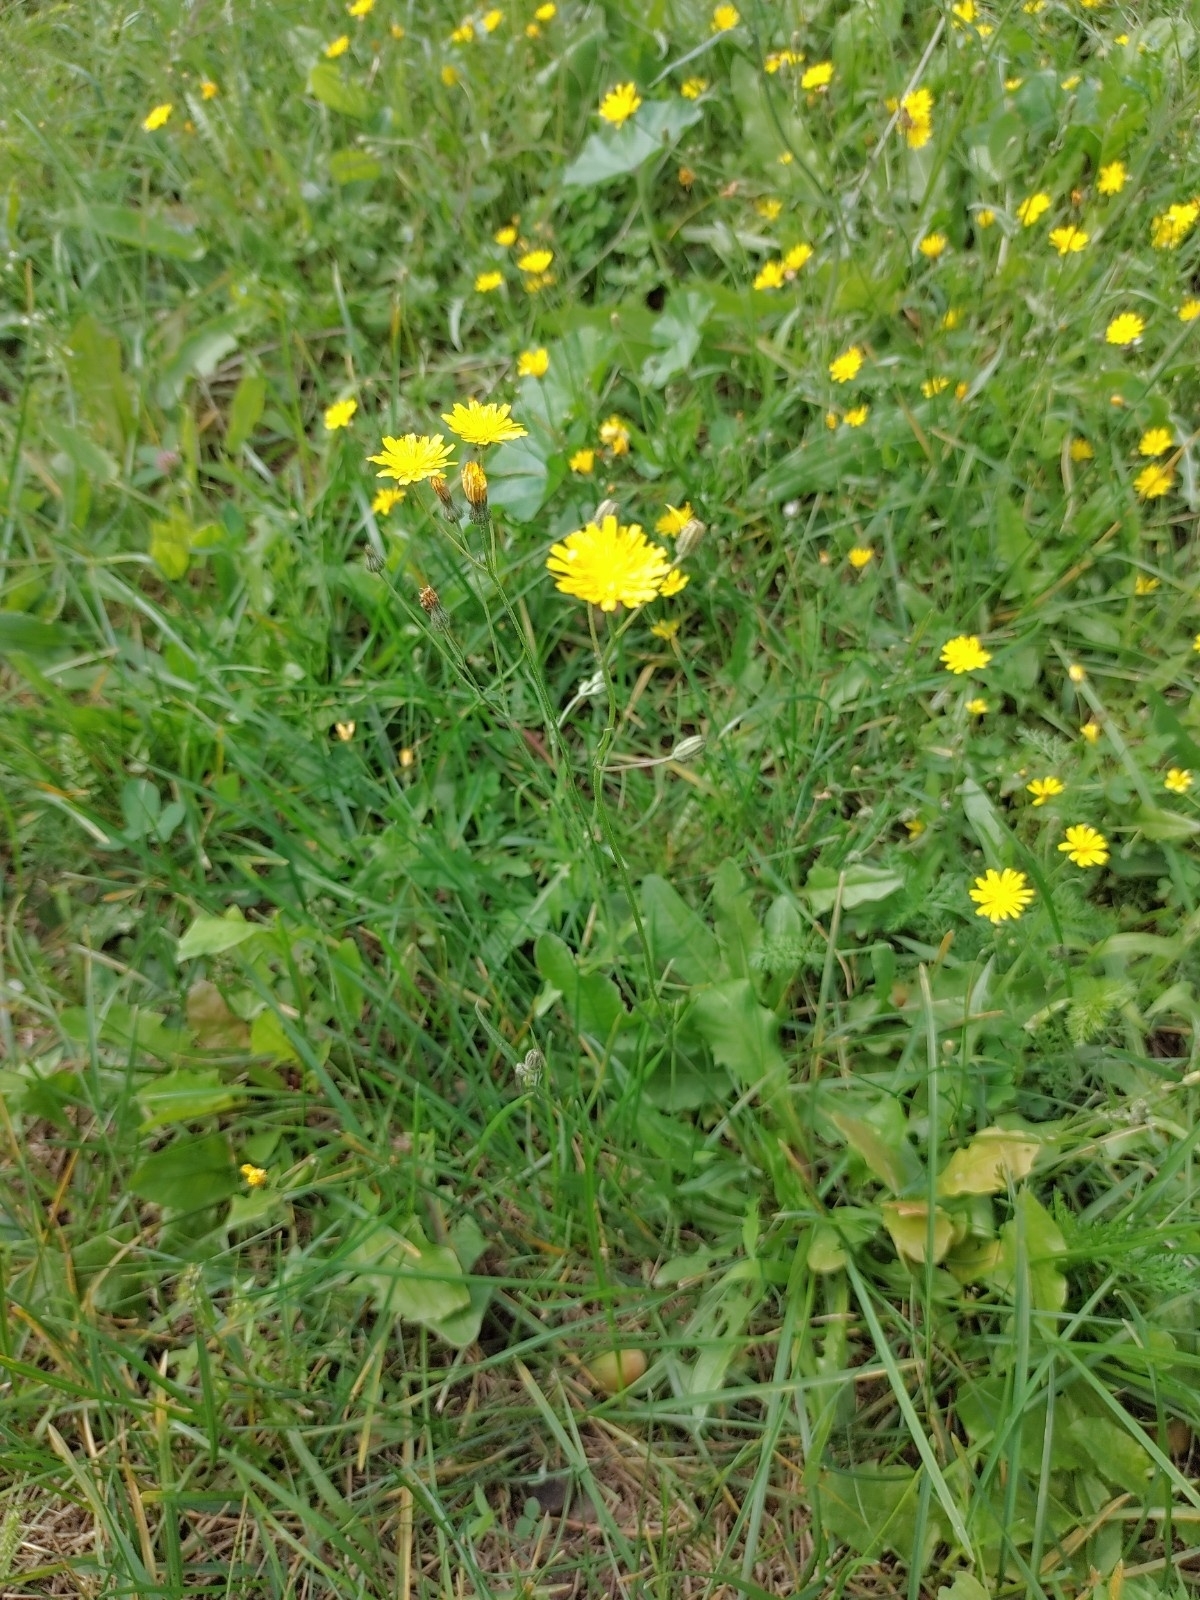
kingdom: Plantae
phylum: Tracheophyta
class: Magnoliopsida
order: Asterales
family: Asteraceae
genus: Scorzoneroides
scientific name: Scorzoneroides autumnalis
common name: Autumn hawkbit
